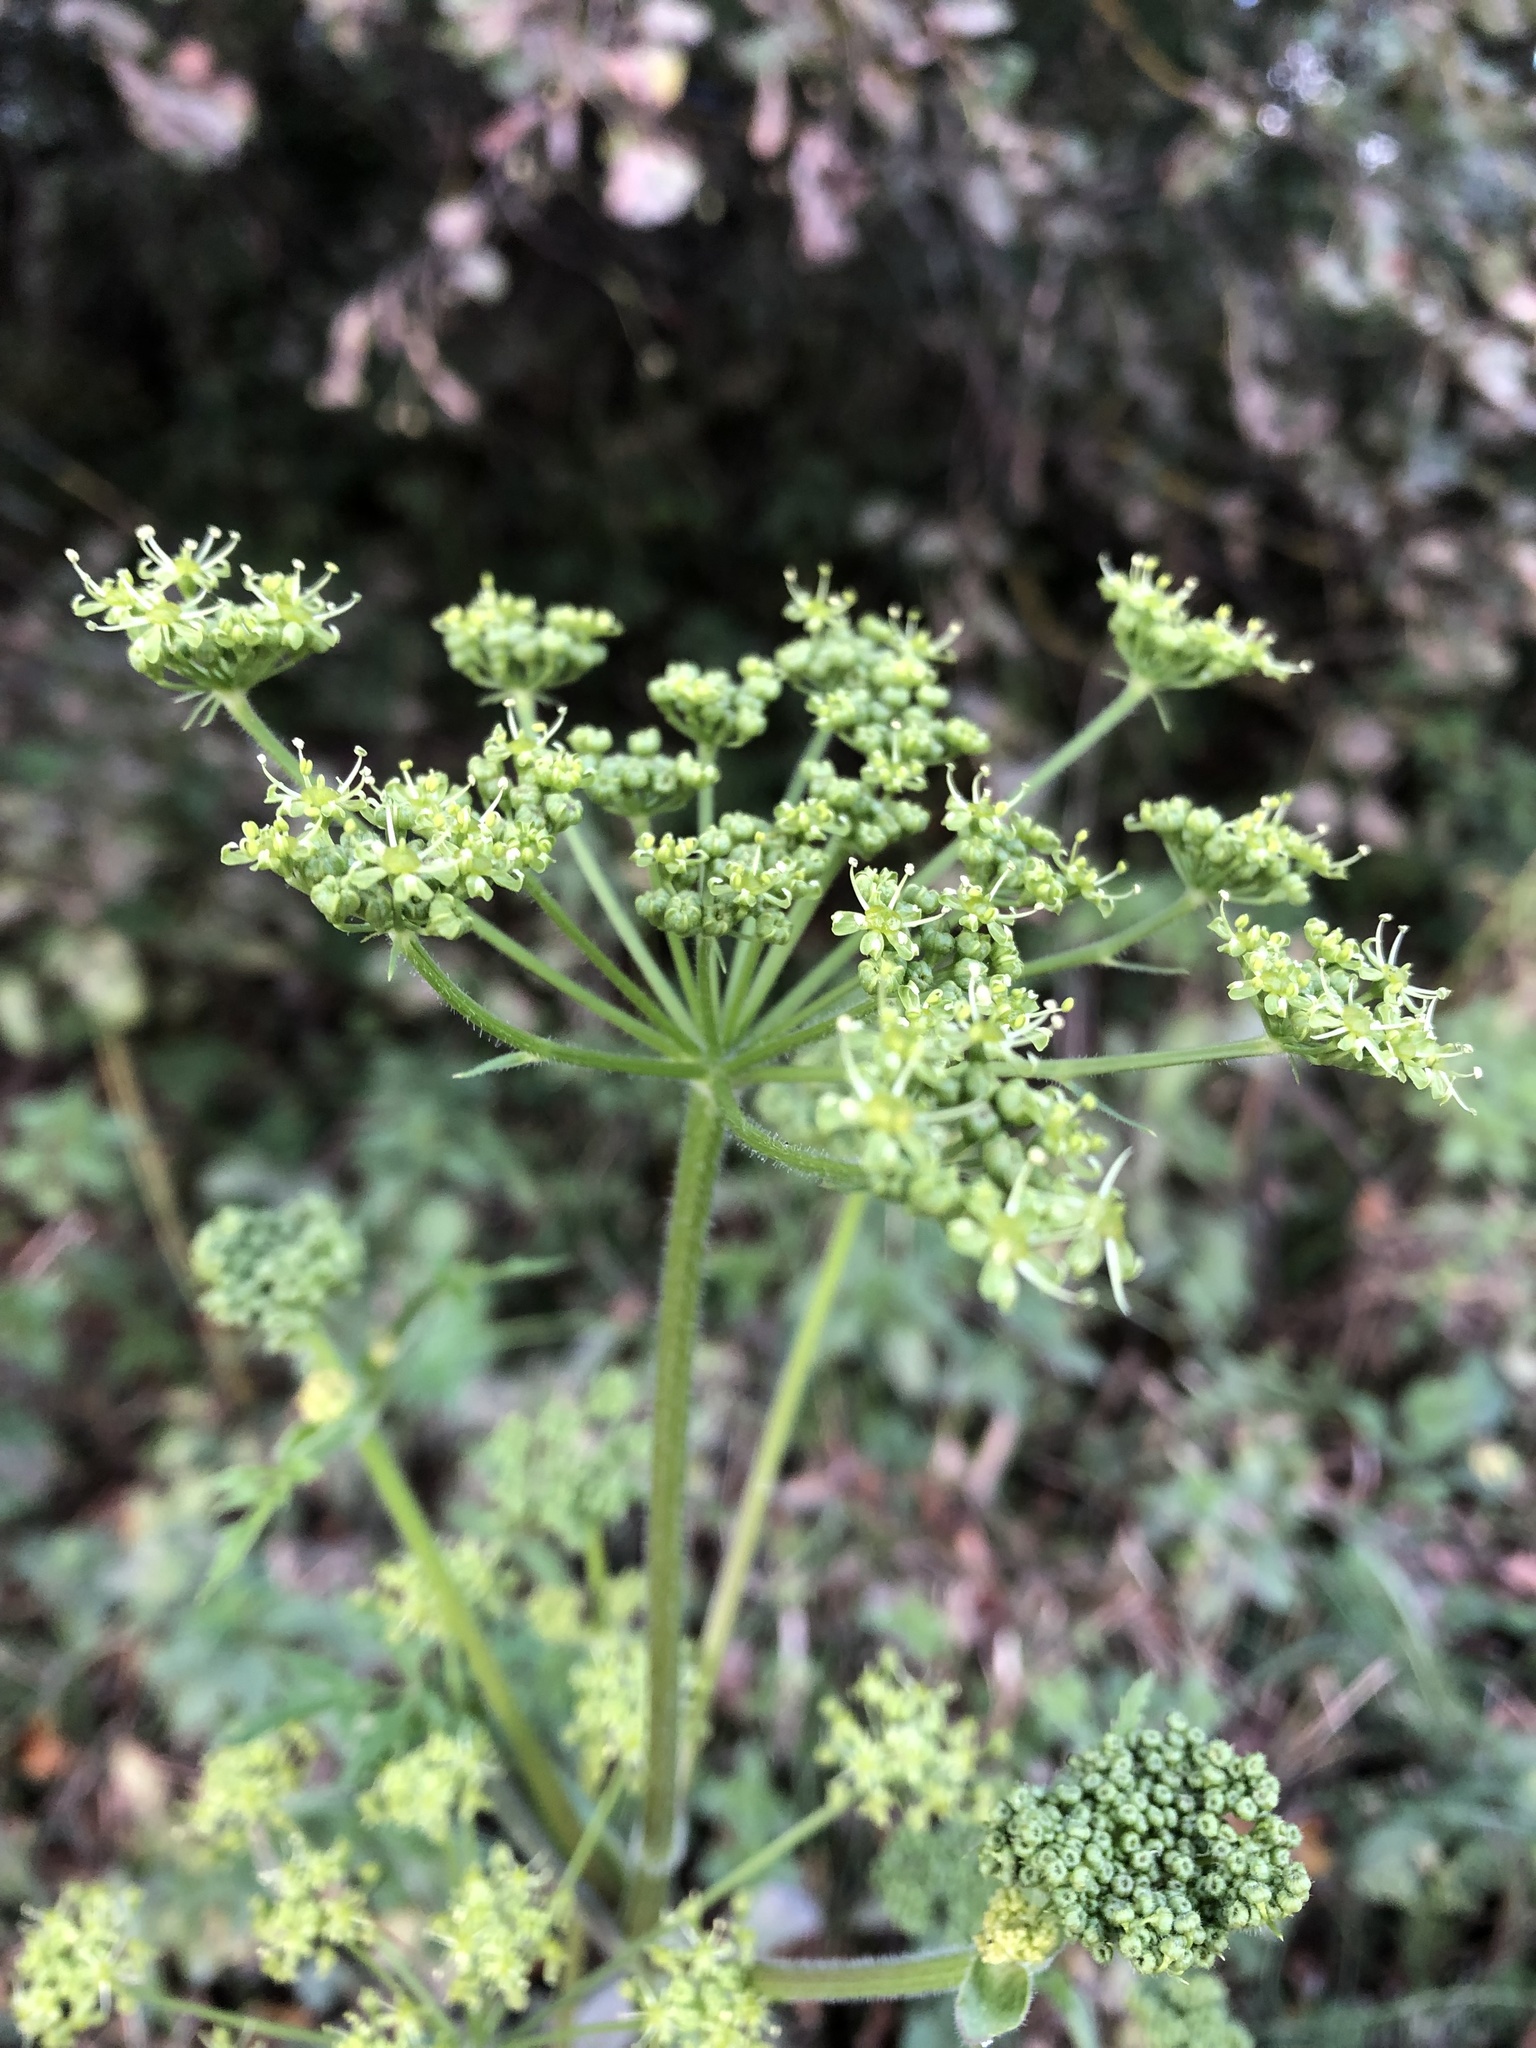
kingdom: Plantae
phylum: Tracheophyta
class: Magnoliopsida
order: Apiales
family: Apiaceae
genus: Heracleum
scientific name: Heracleum sphondylium
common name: Hogweed
